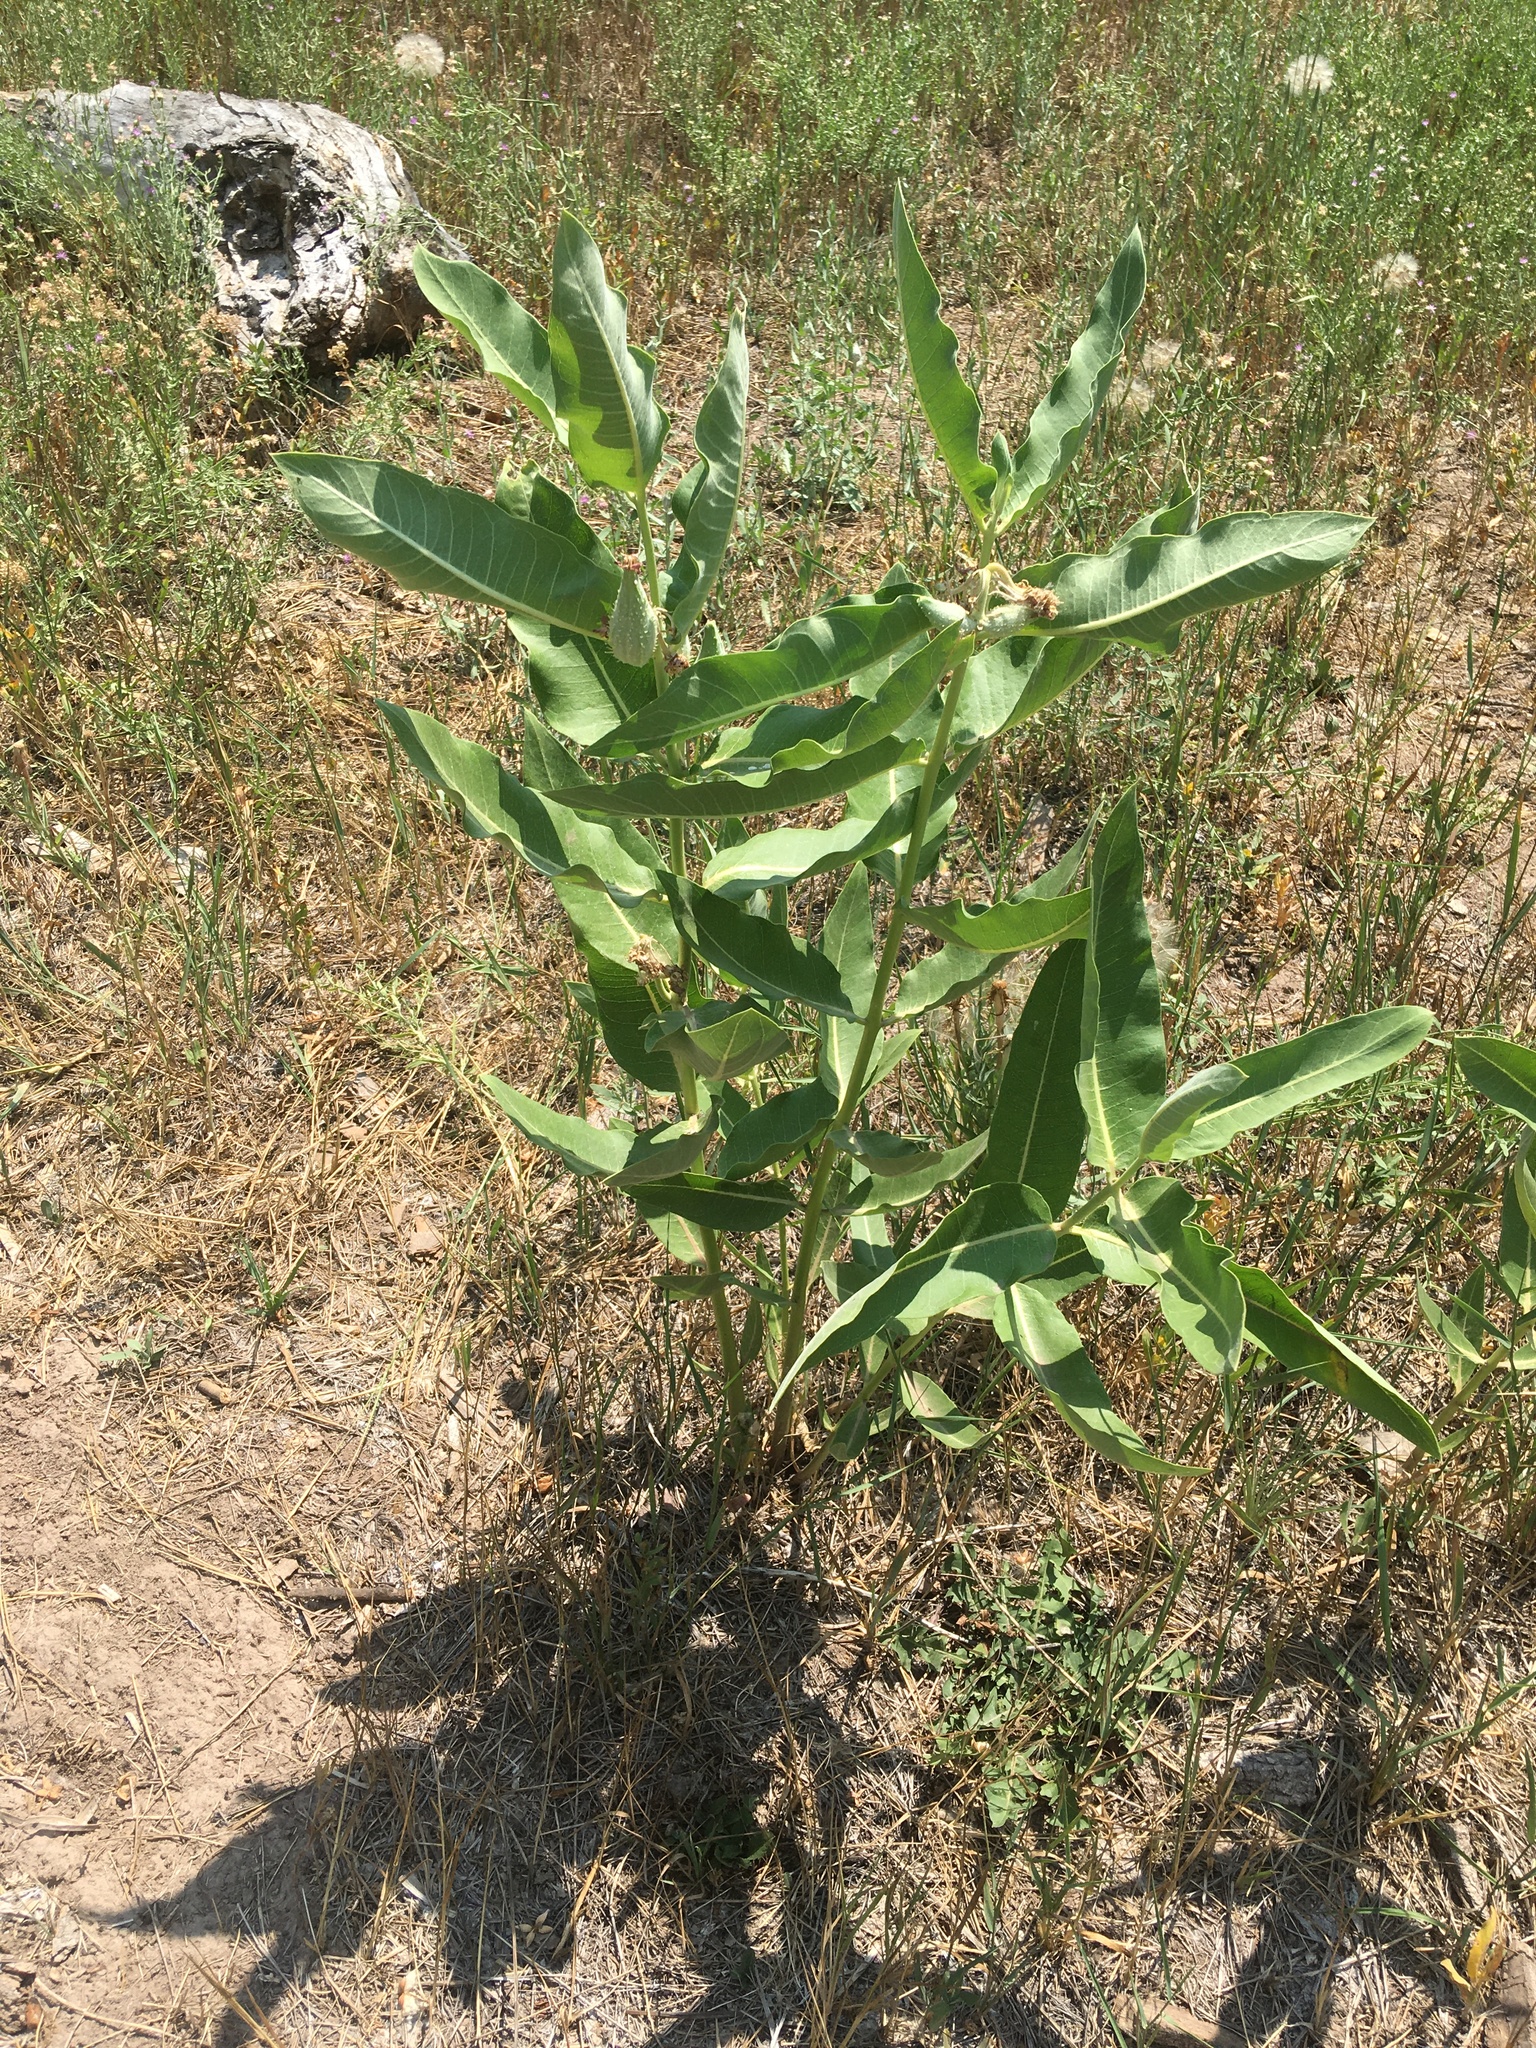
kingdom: Plantae
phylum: Tracheophyta
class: Magnoliopsida
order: Gentianales
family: Apocynaceae
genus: Asclepias
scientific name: Asclepias speciosa
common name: Showy milkweed
